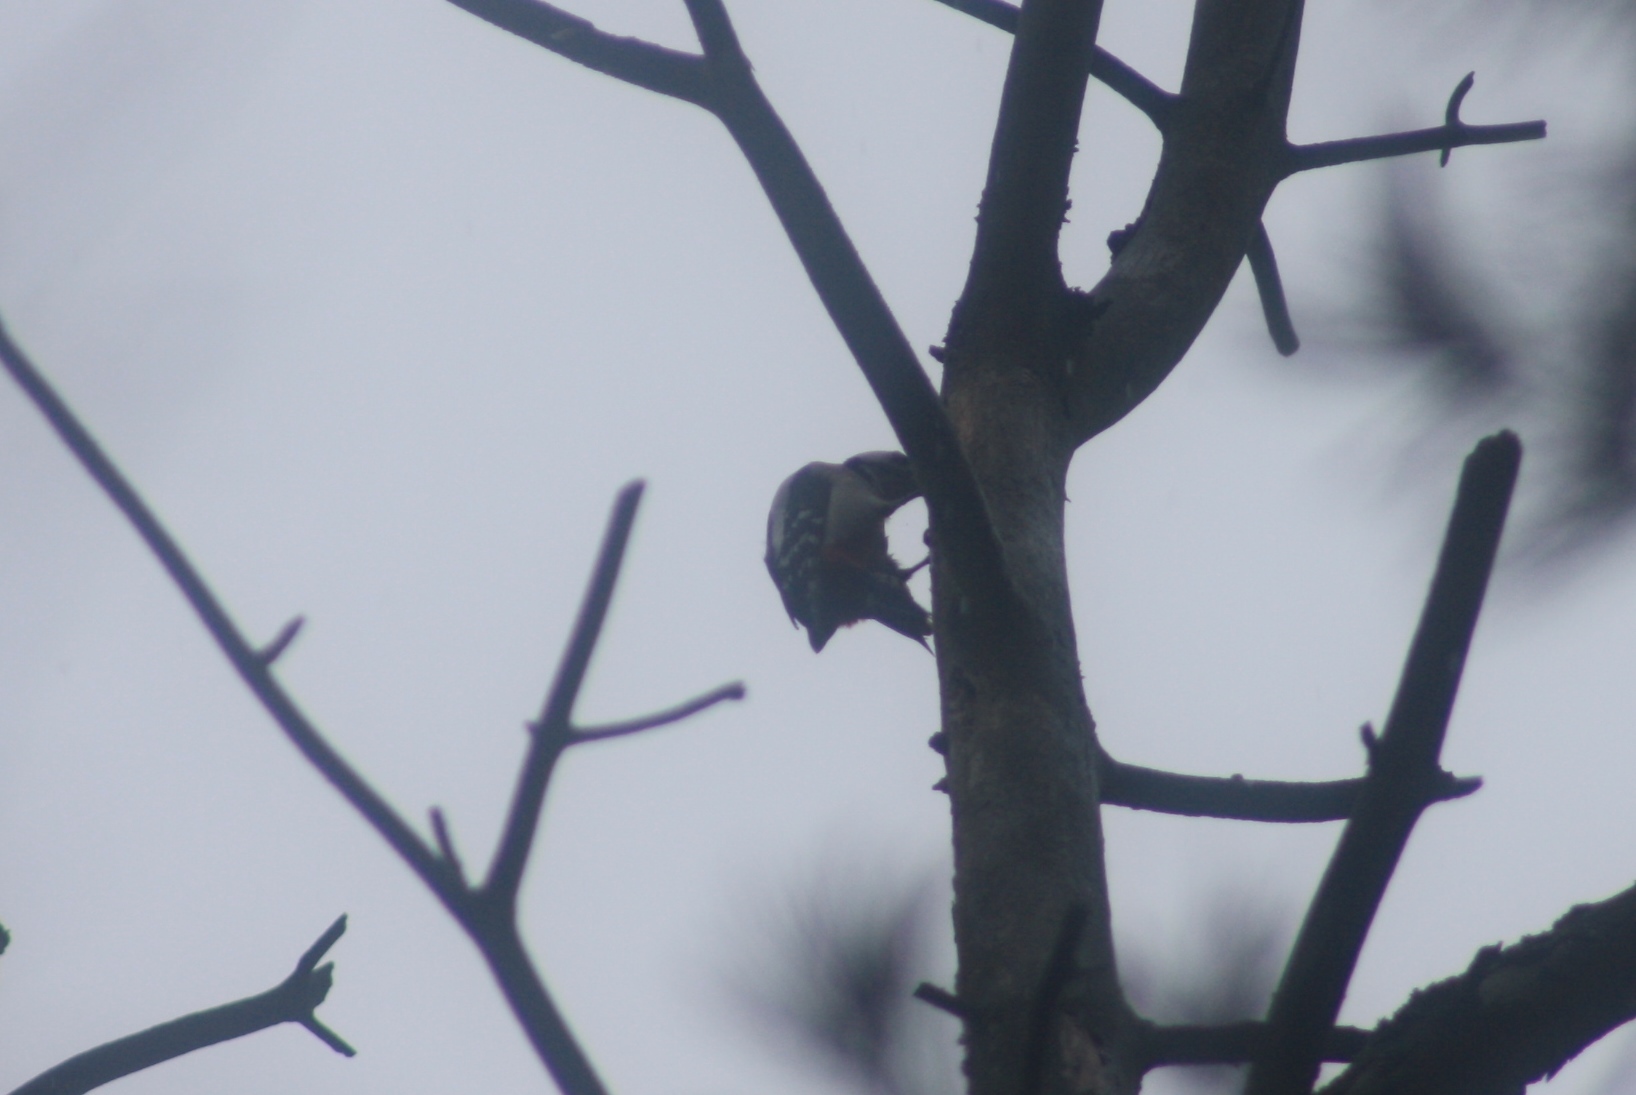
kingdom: Animalia
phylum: Chordata
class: Aves
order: Piciformes
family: Picidae
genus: Dendrocopos
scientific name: Dendrocopos major
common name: Great spotted woodpecker
